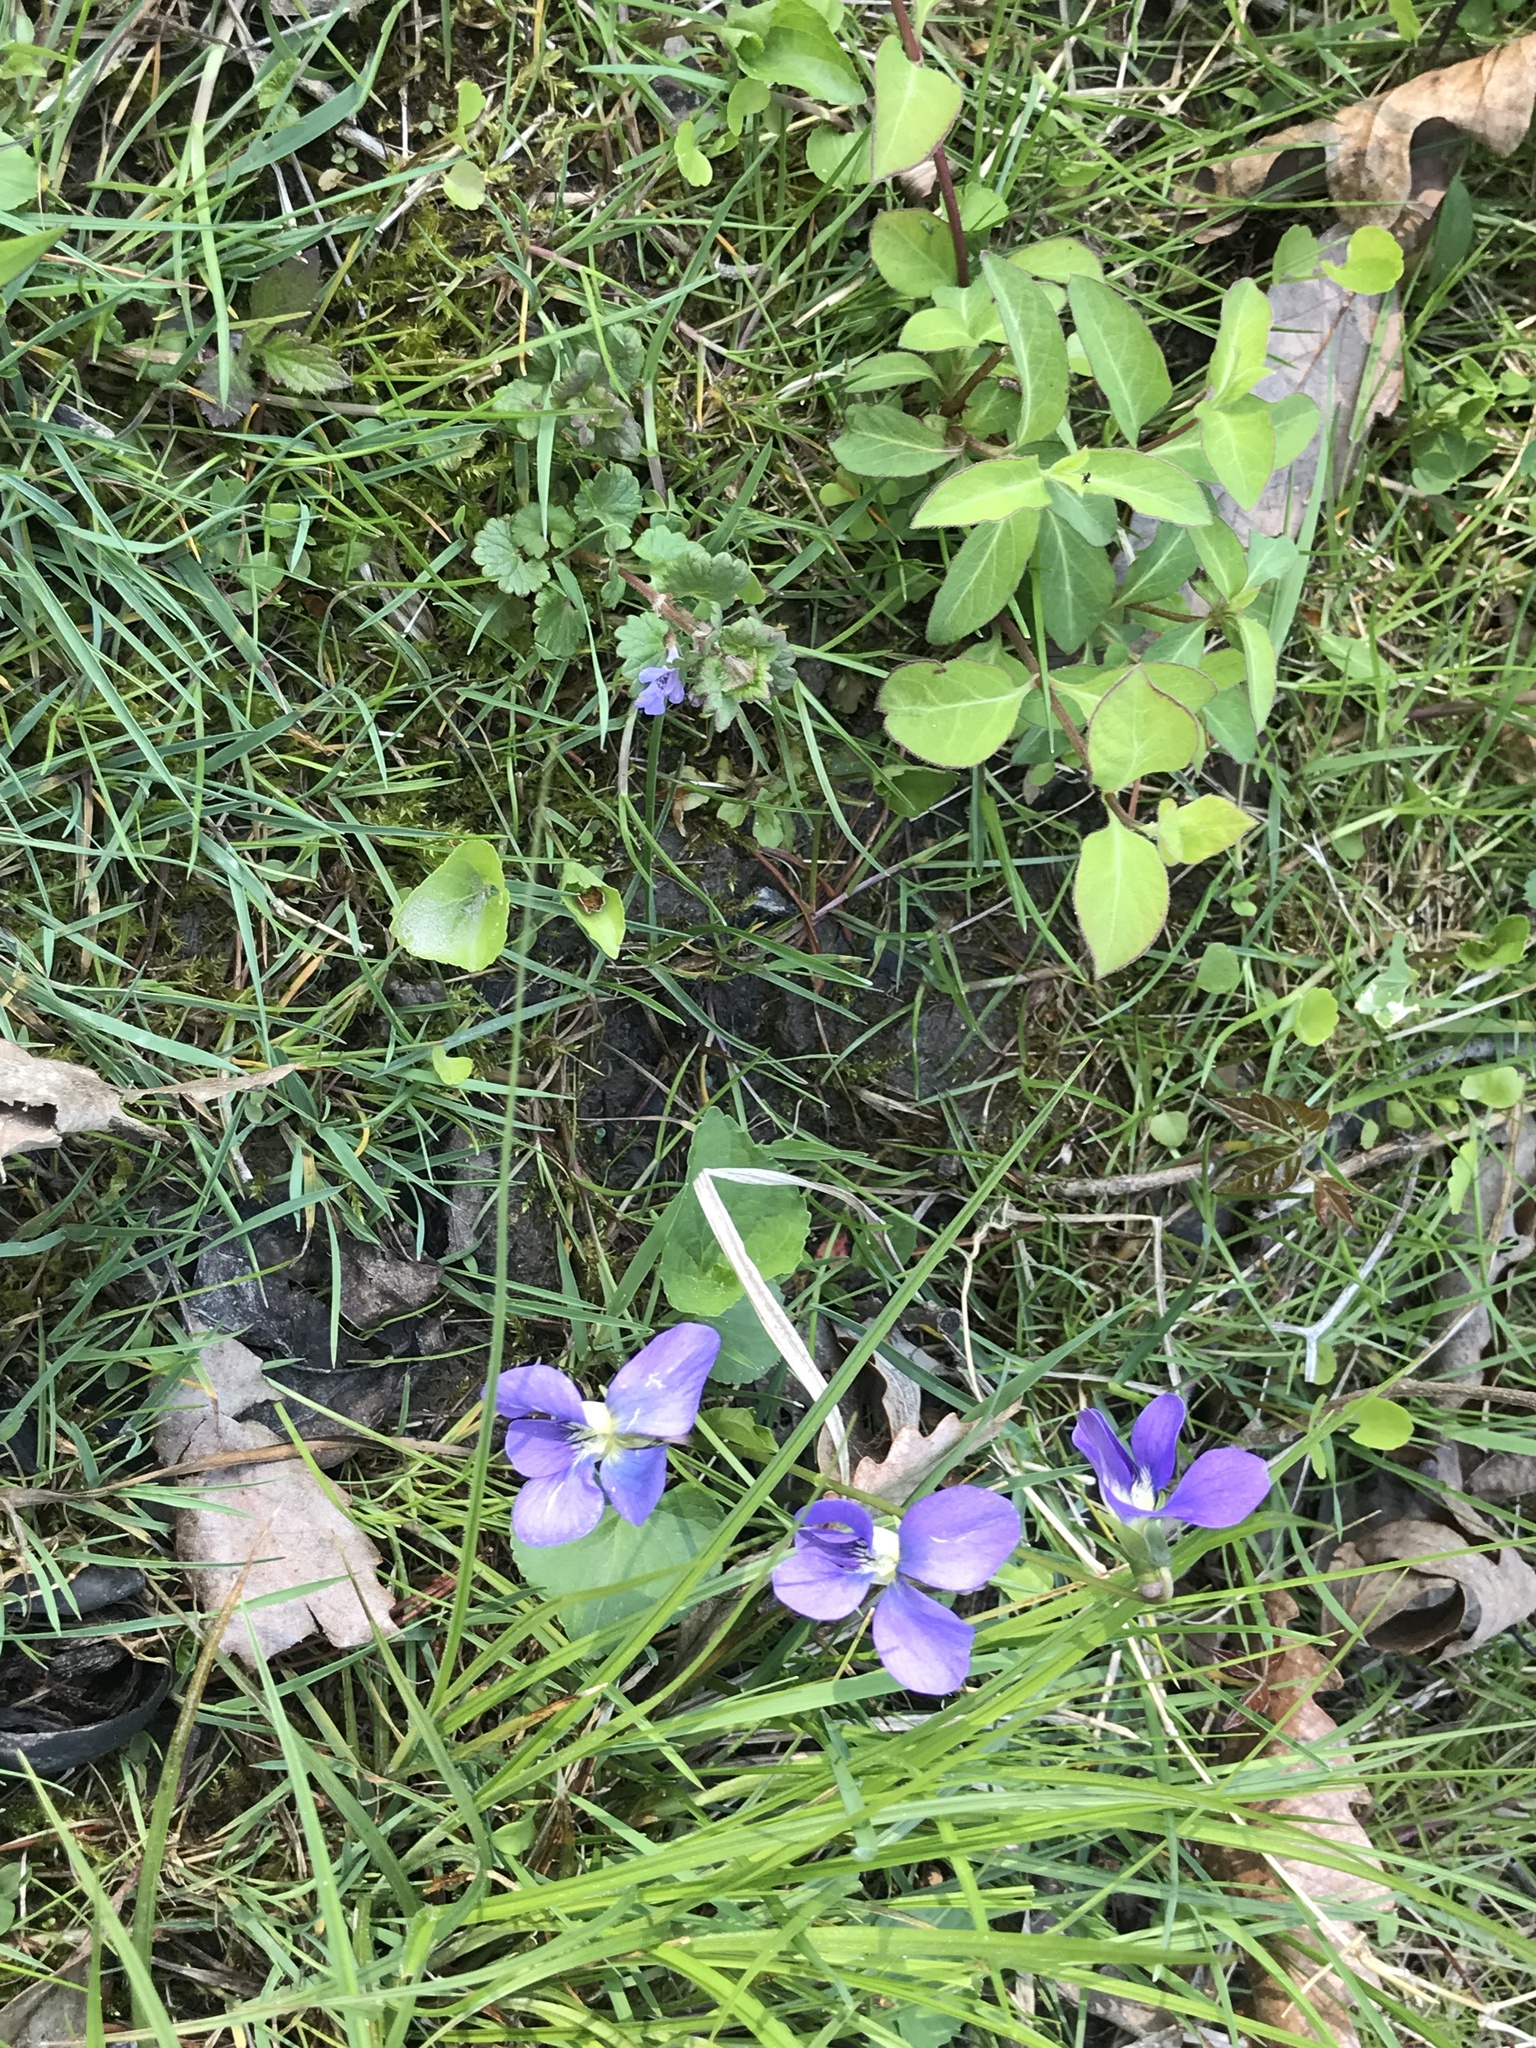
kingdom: Plantae
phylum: Tracheophyta
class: Magnoliopsida
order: Malpighiales
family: Violaceae
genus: Viola
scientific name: Viola sororia
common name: Dooryard violet
